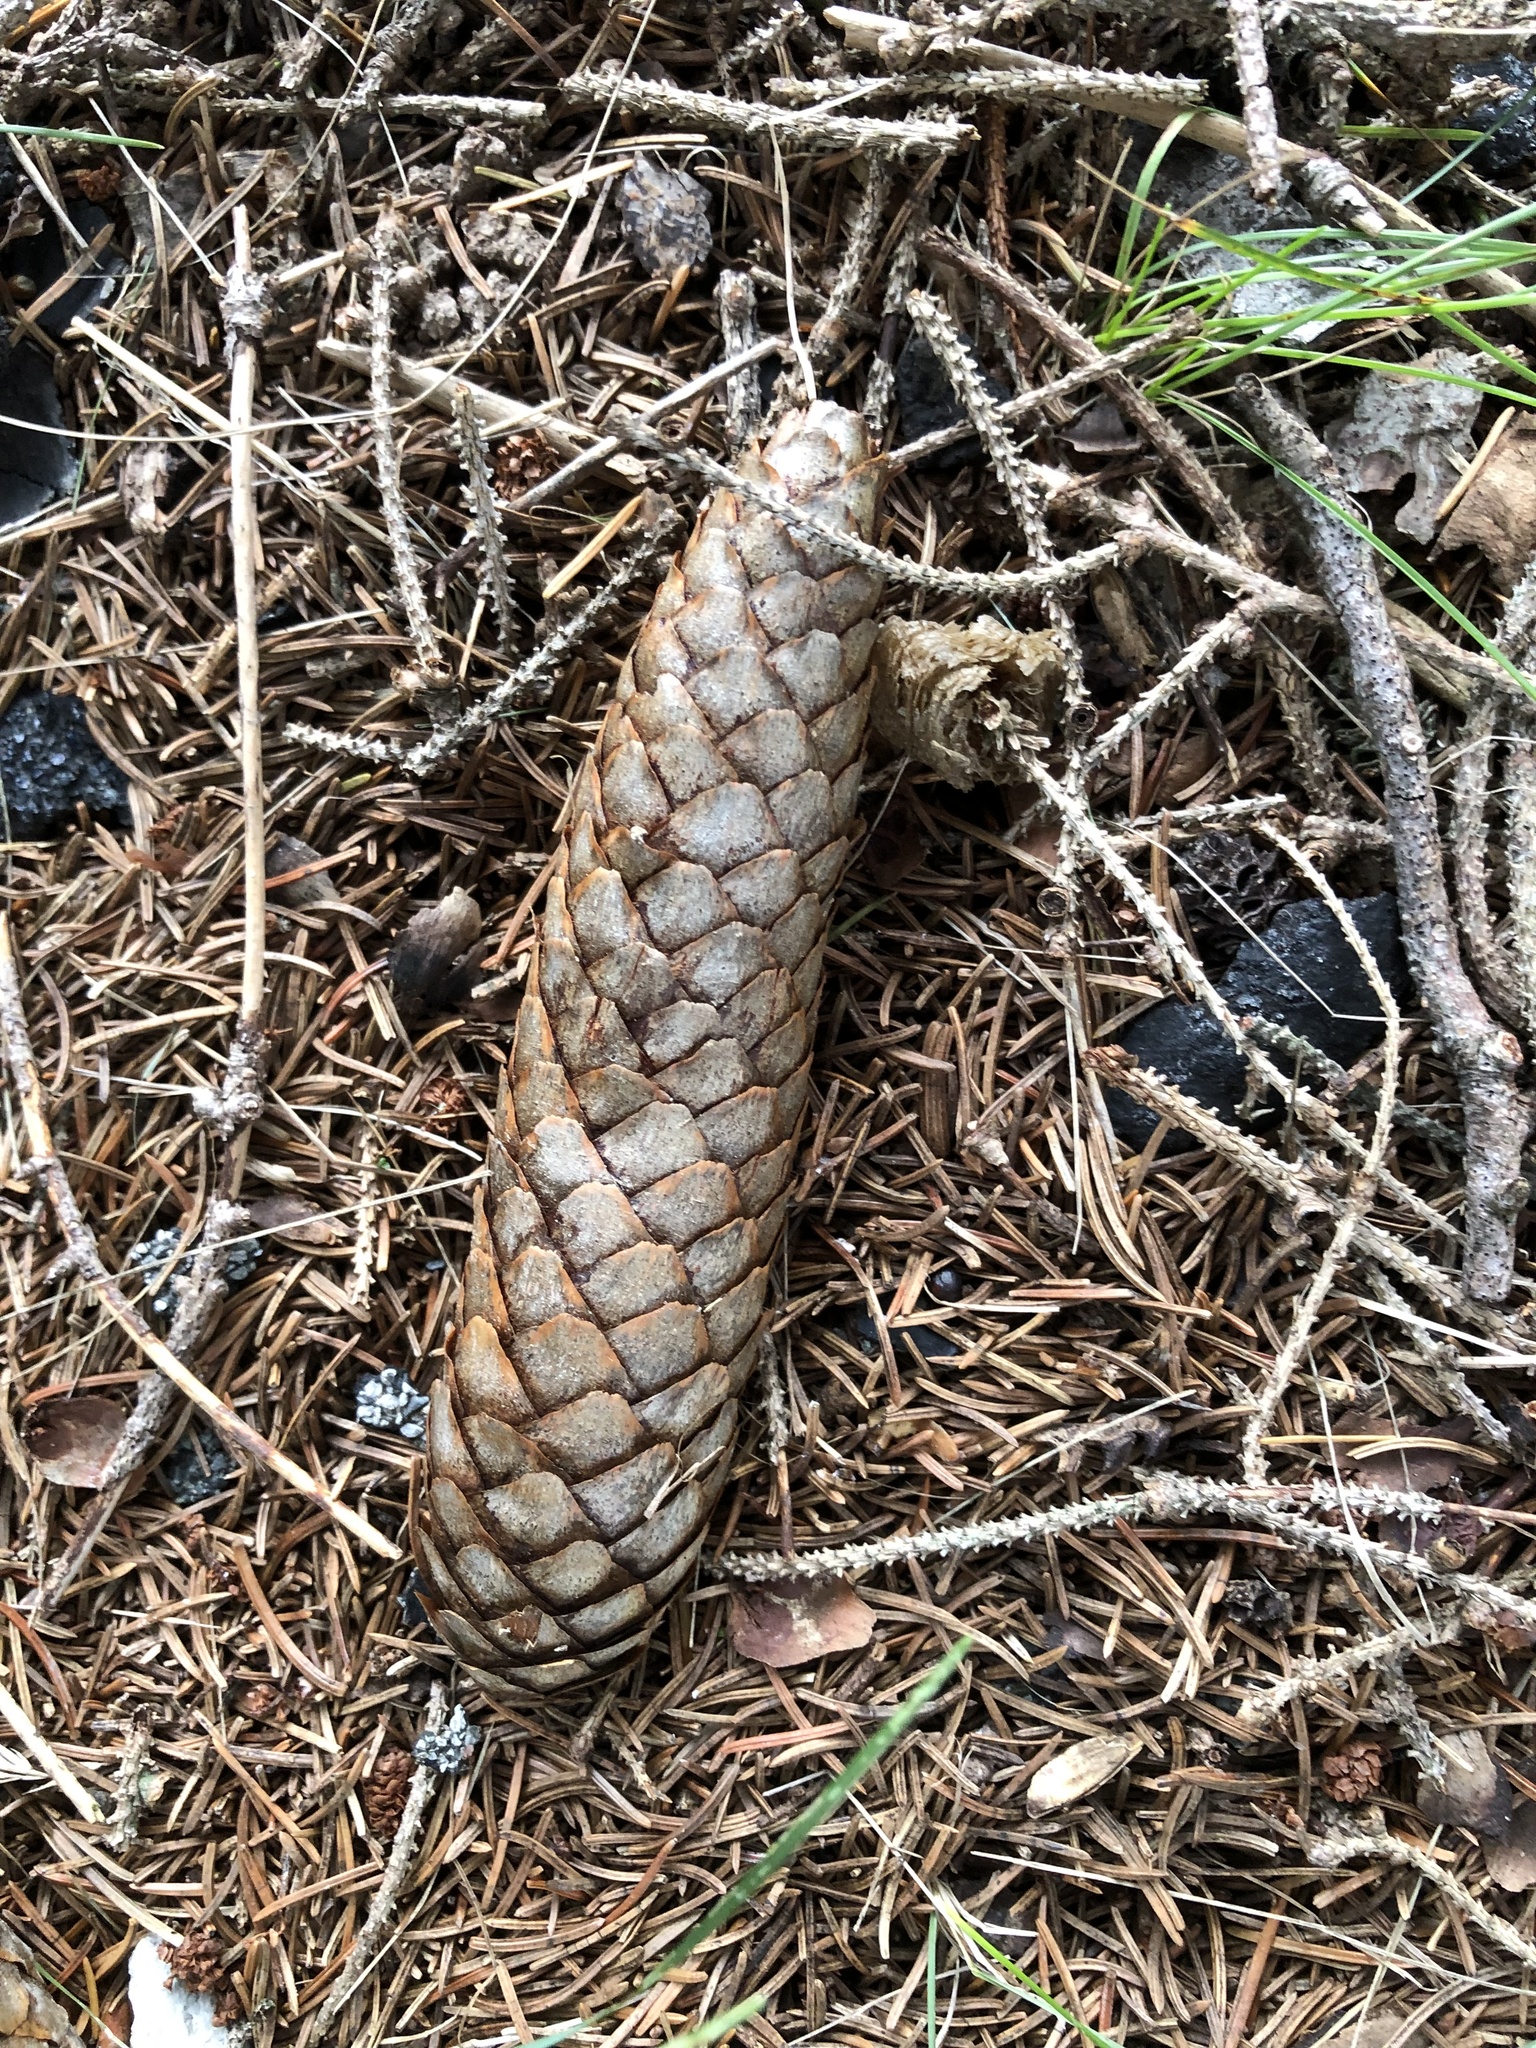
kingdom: Plantae
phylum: Tracheophyta
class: Pinopsida
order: Pinales
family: Pinaceae
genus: Picea
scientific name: Picea abies
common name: Norway spruce
